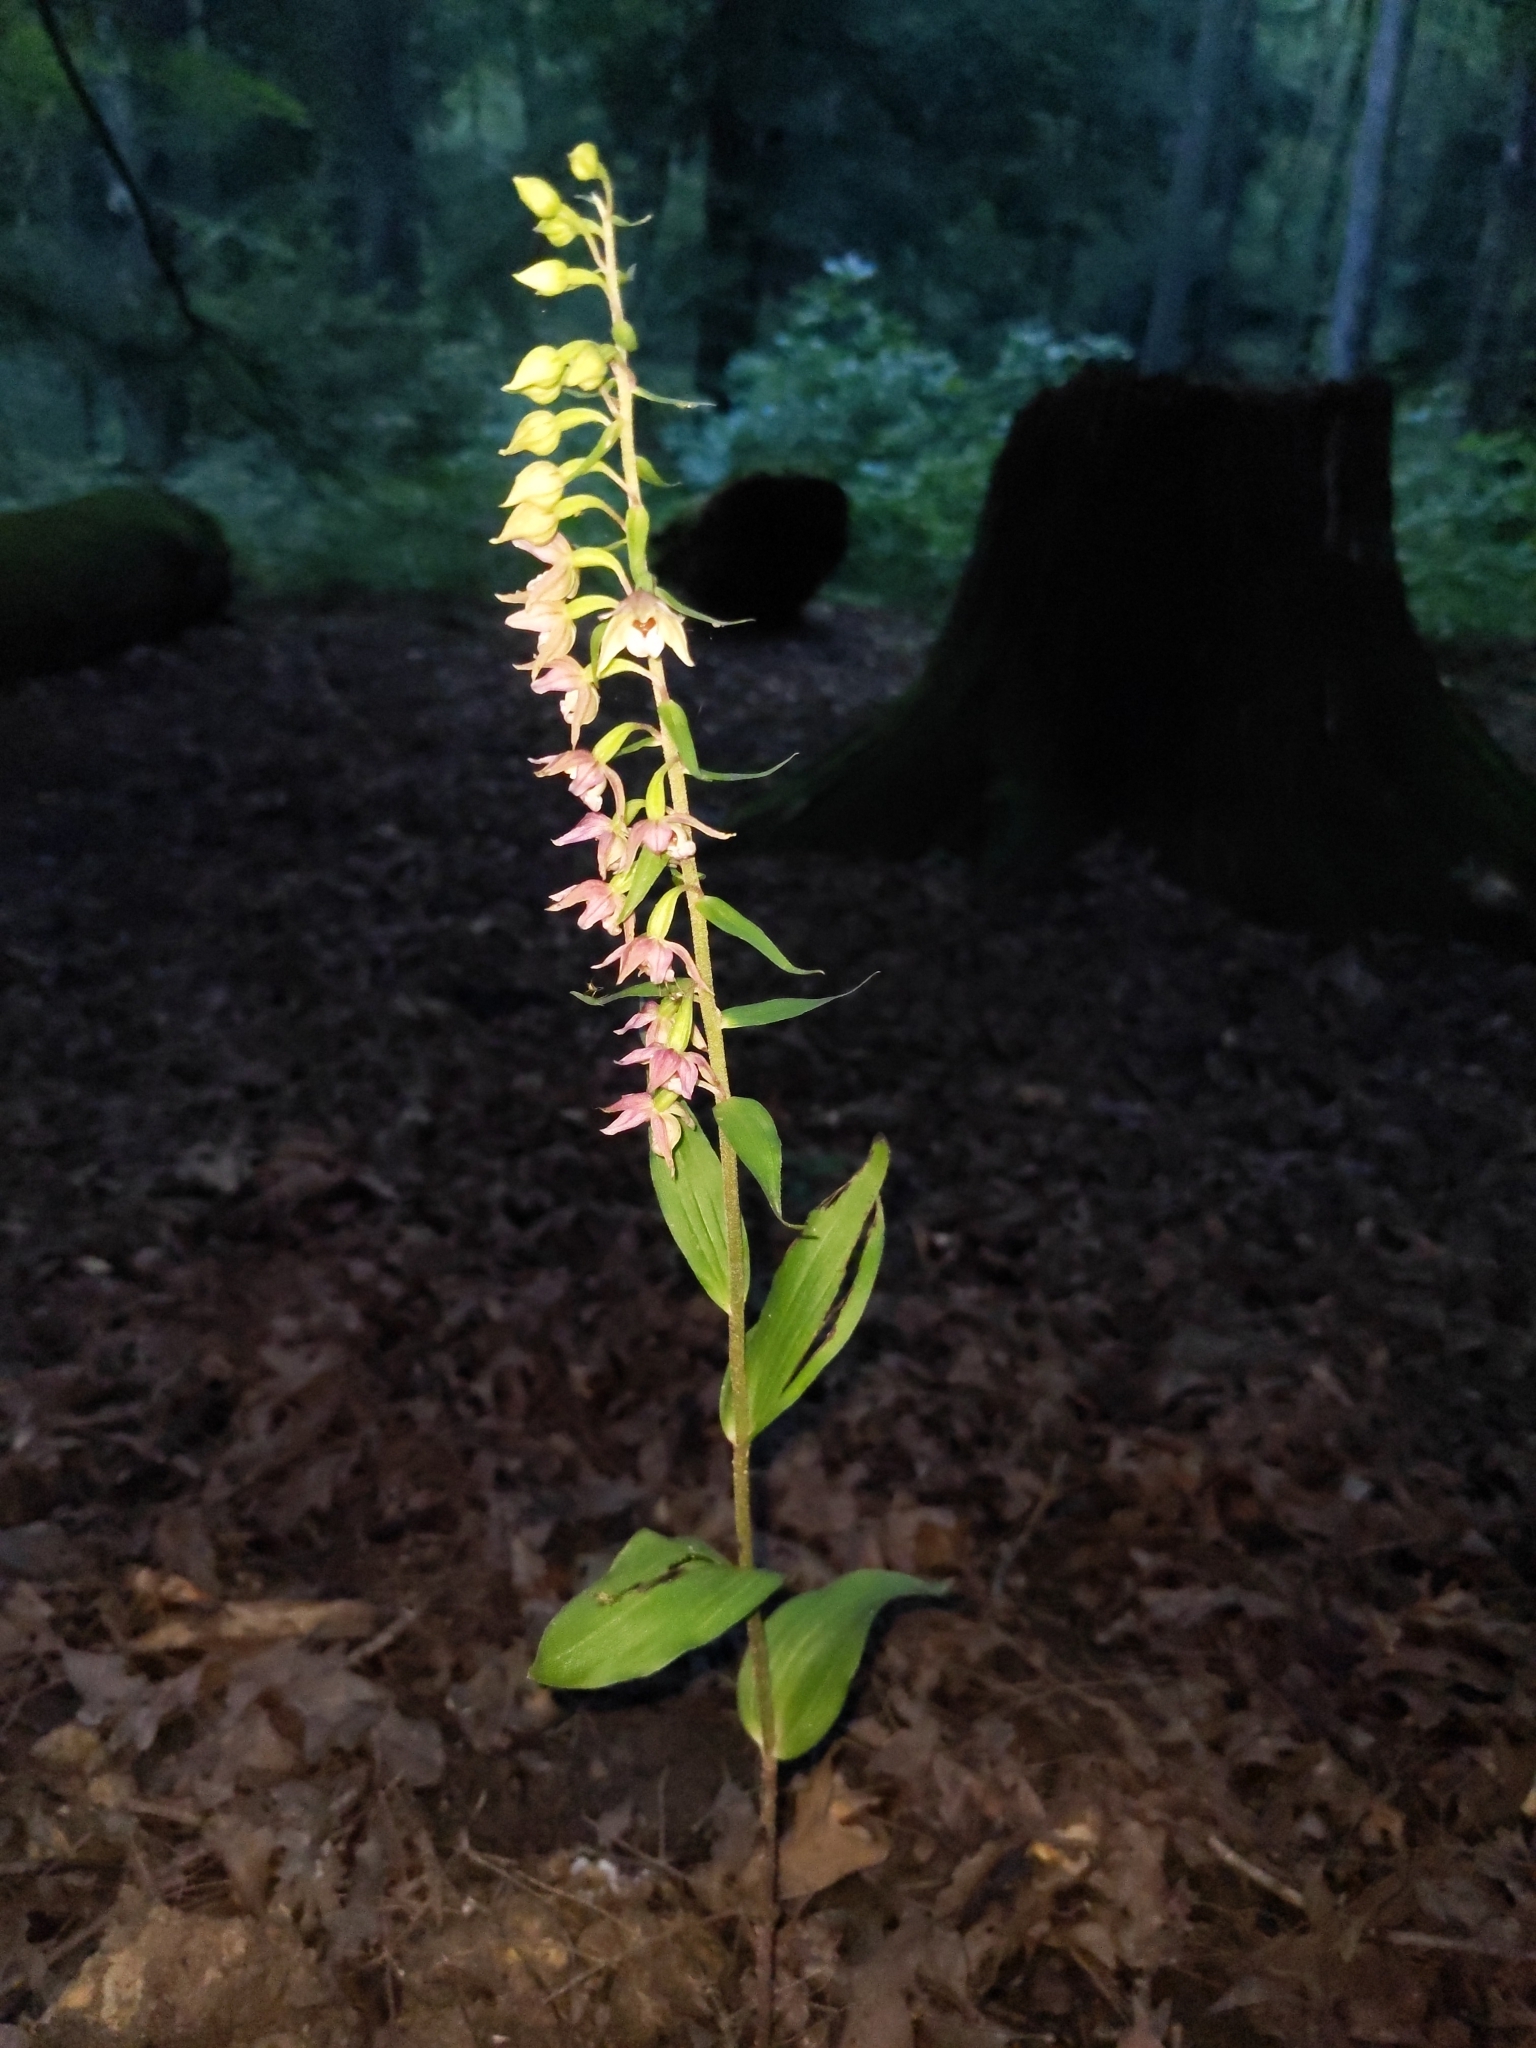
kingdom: Plantae
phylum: Tracheophyta
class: Liliopsida
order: Asparagales
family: Orchidaceae
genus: Epipactis
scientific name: Epipactis helleborine
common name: Broad-leaved helleborine
